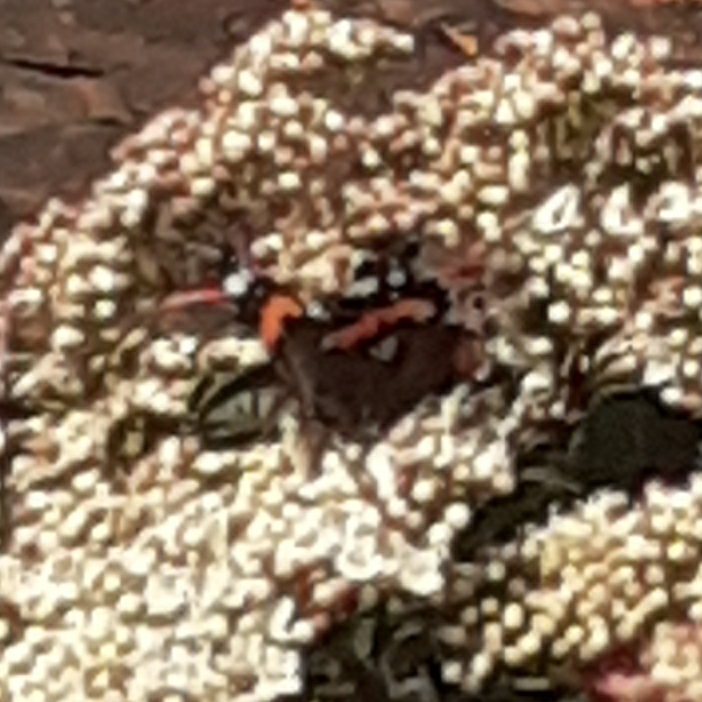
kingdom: Animalia
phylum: Arthropoda
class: Insecta
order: Lepidoptera
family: Nymphalidae
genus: Vanessa
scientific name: Vanessa atalanta
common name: Red admiral
